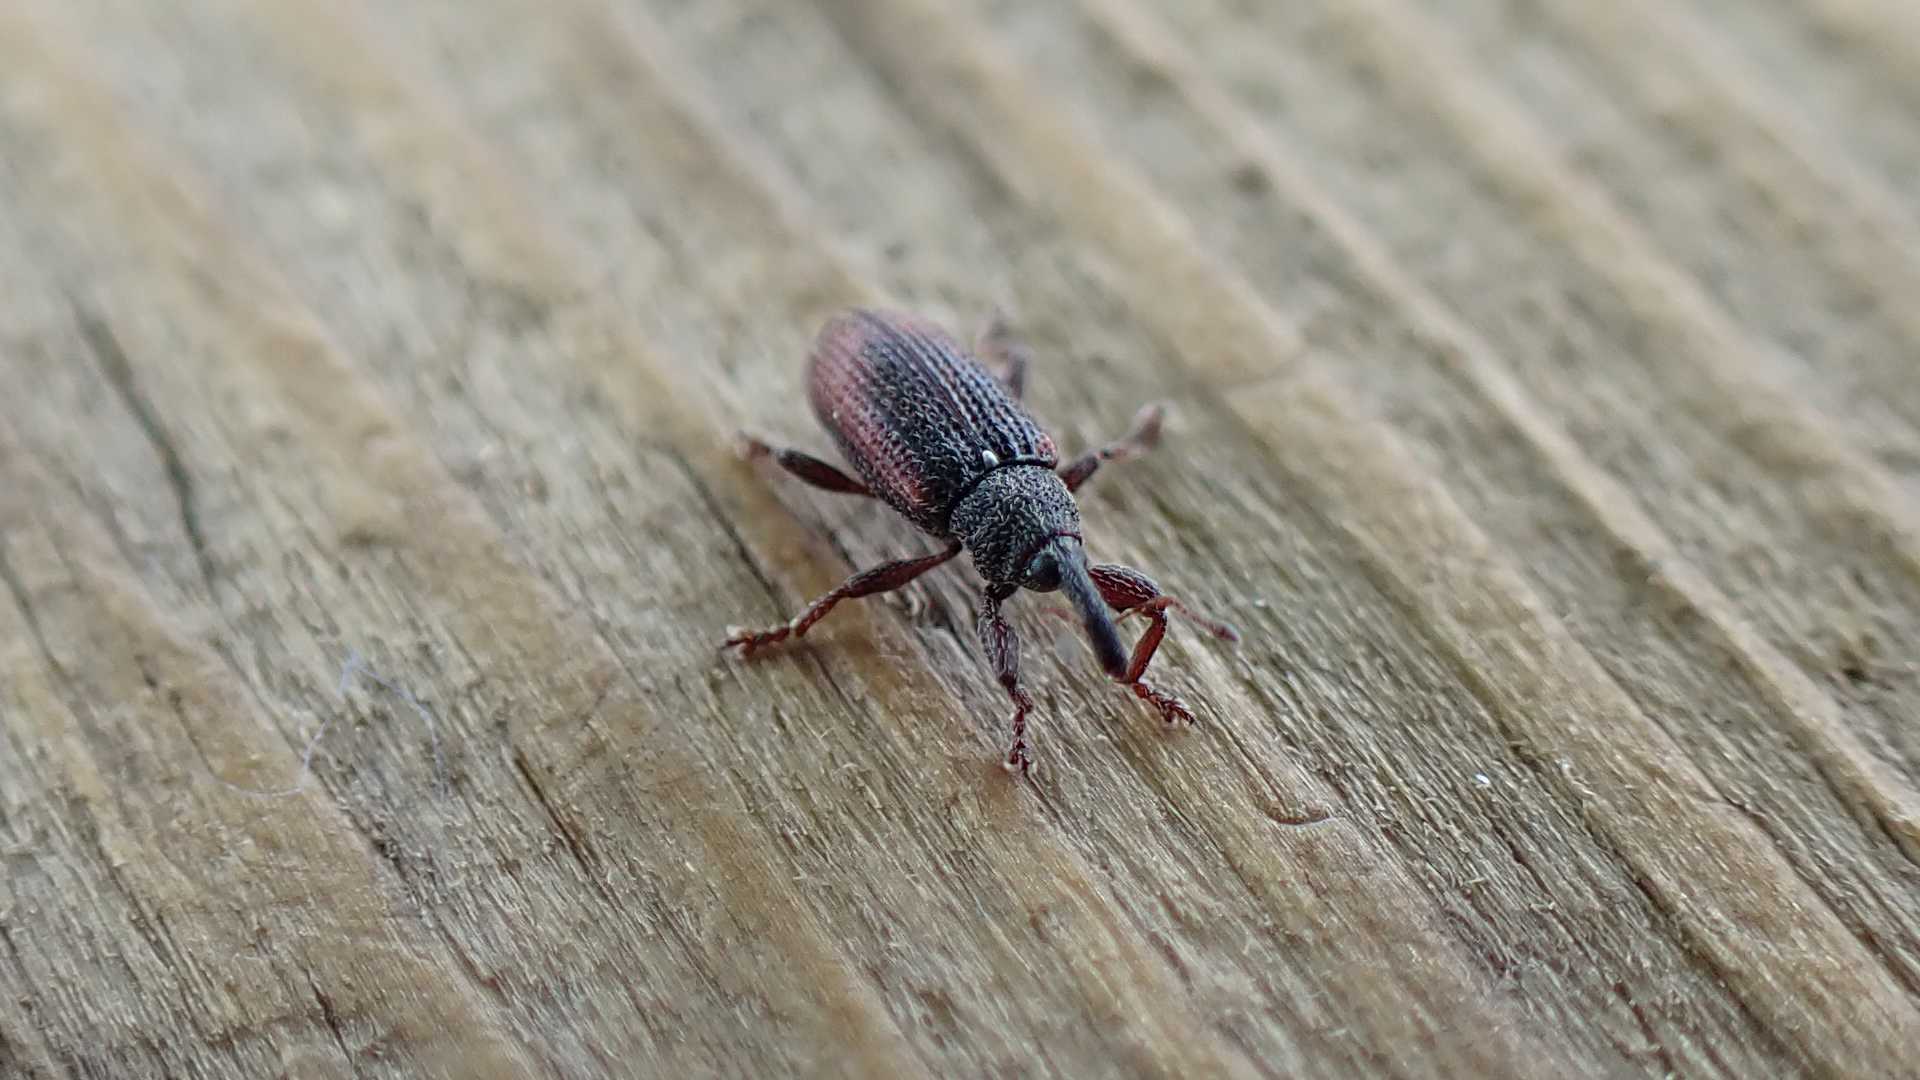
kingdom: Animalia
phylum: Arthropoda
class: Insecta
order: Coleoptera
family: Curculionidae
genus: Bradybatus
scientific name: Bradybatus kellneri
